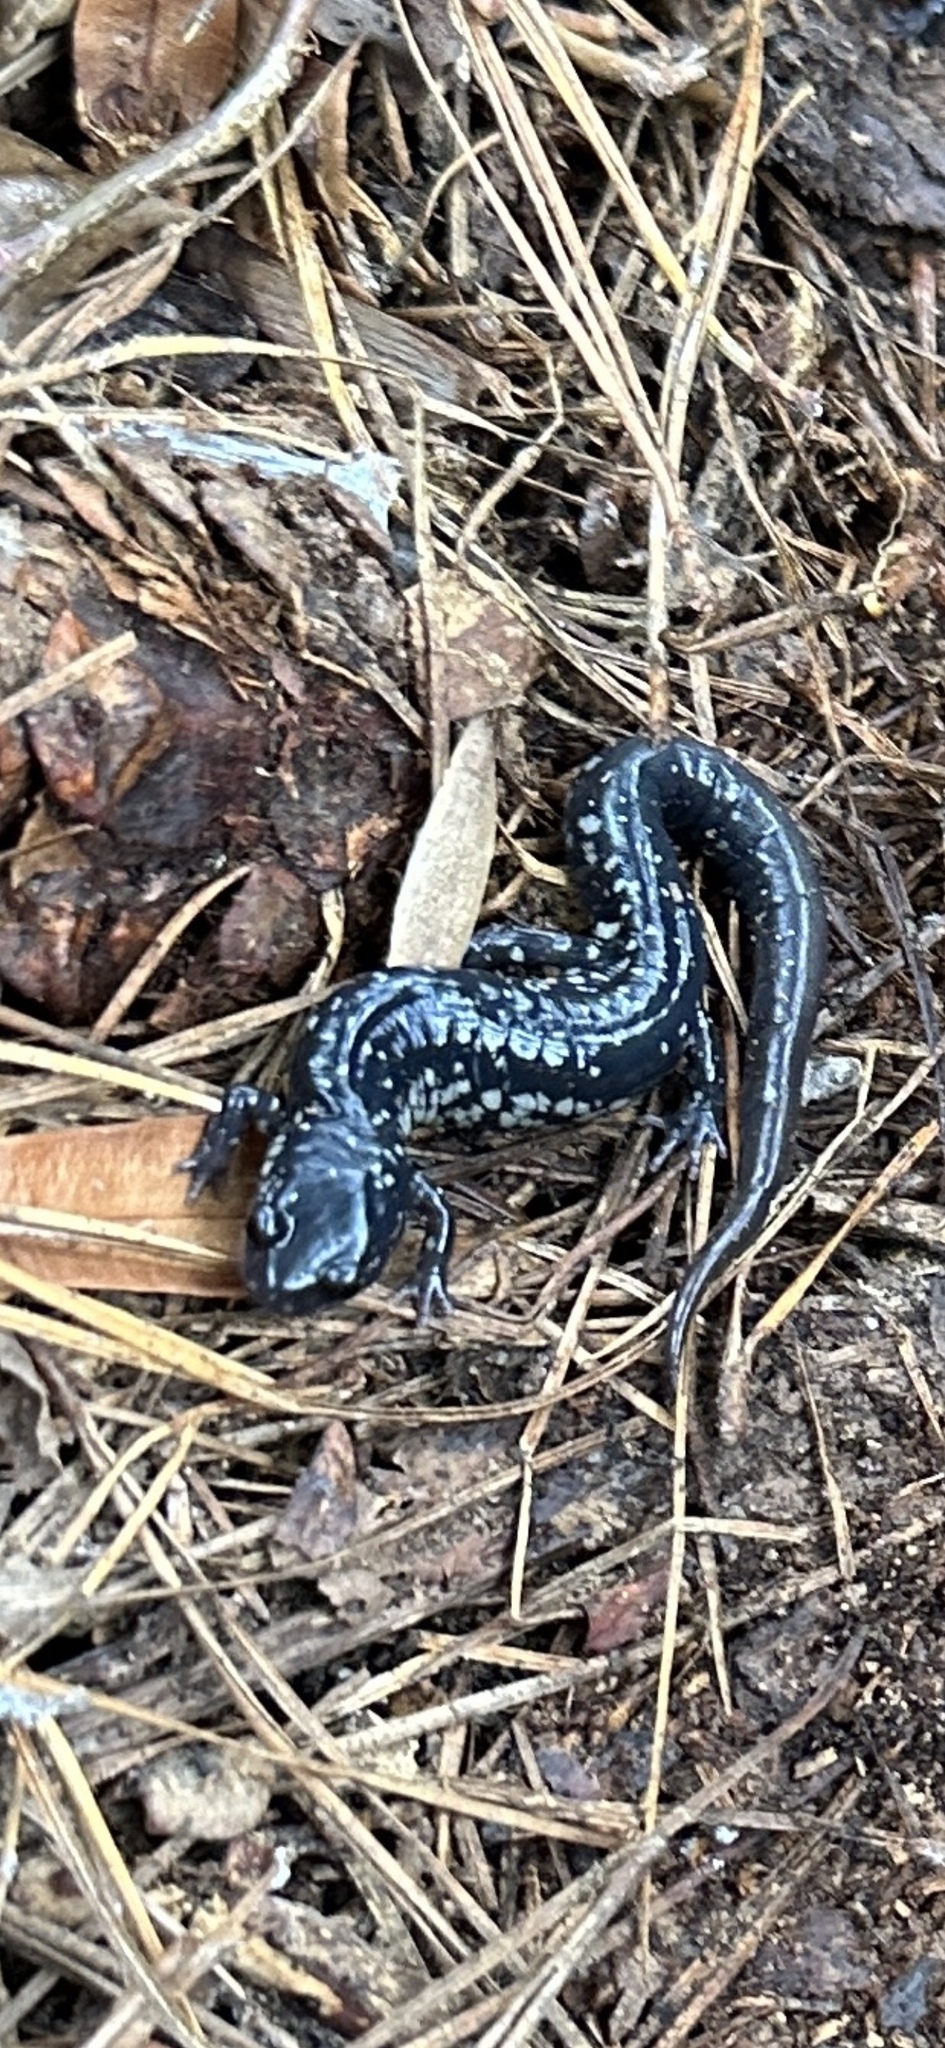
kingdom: Animalia
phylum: Chordata
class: Amphibia
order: Caudata
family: Plethodontidae
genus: Plethodon
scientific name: Plethodon glutinosus
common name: Northern slimy salamander
